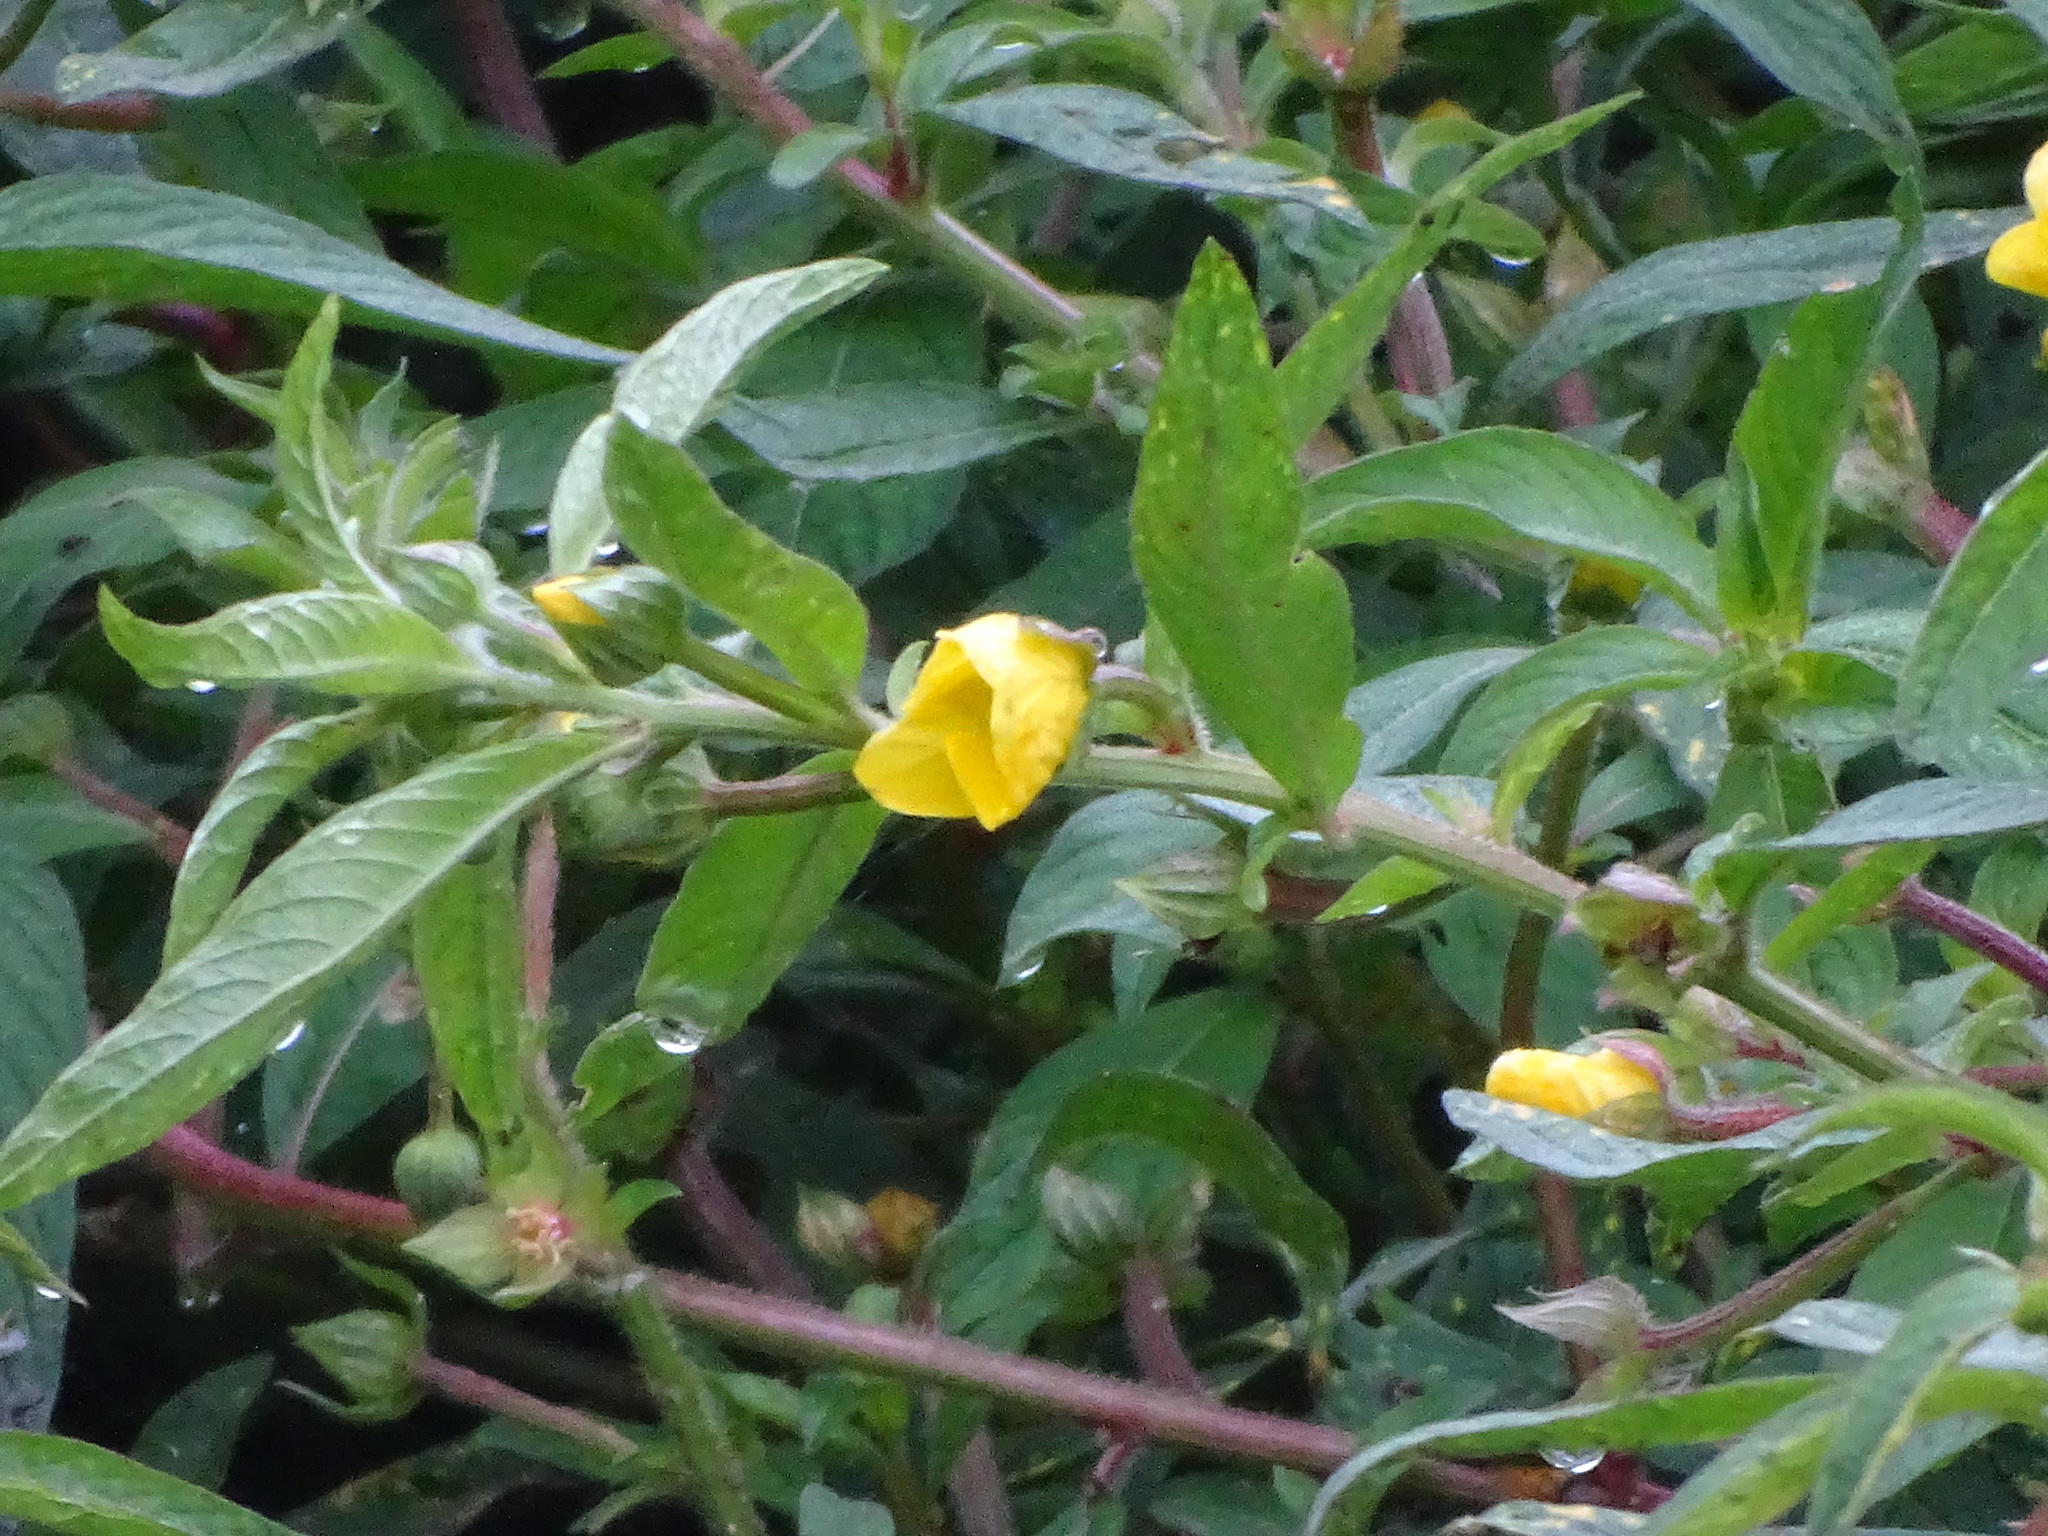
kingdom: Plantae
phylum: Tracheophyta
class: Magnoliopsida
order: Myrtales
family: Onagraceae
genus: Ludwigia
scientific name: Ludwigia octovalvis
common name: Water-primrose
